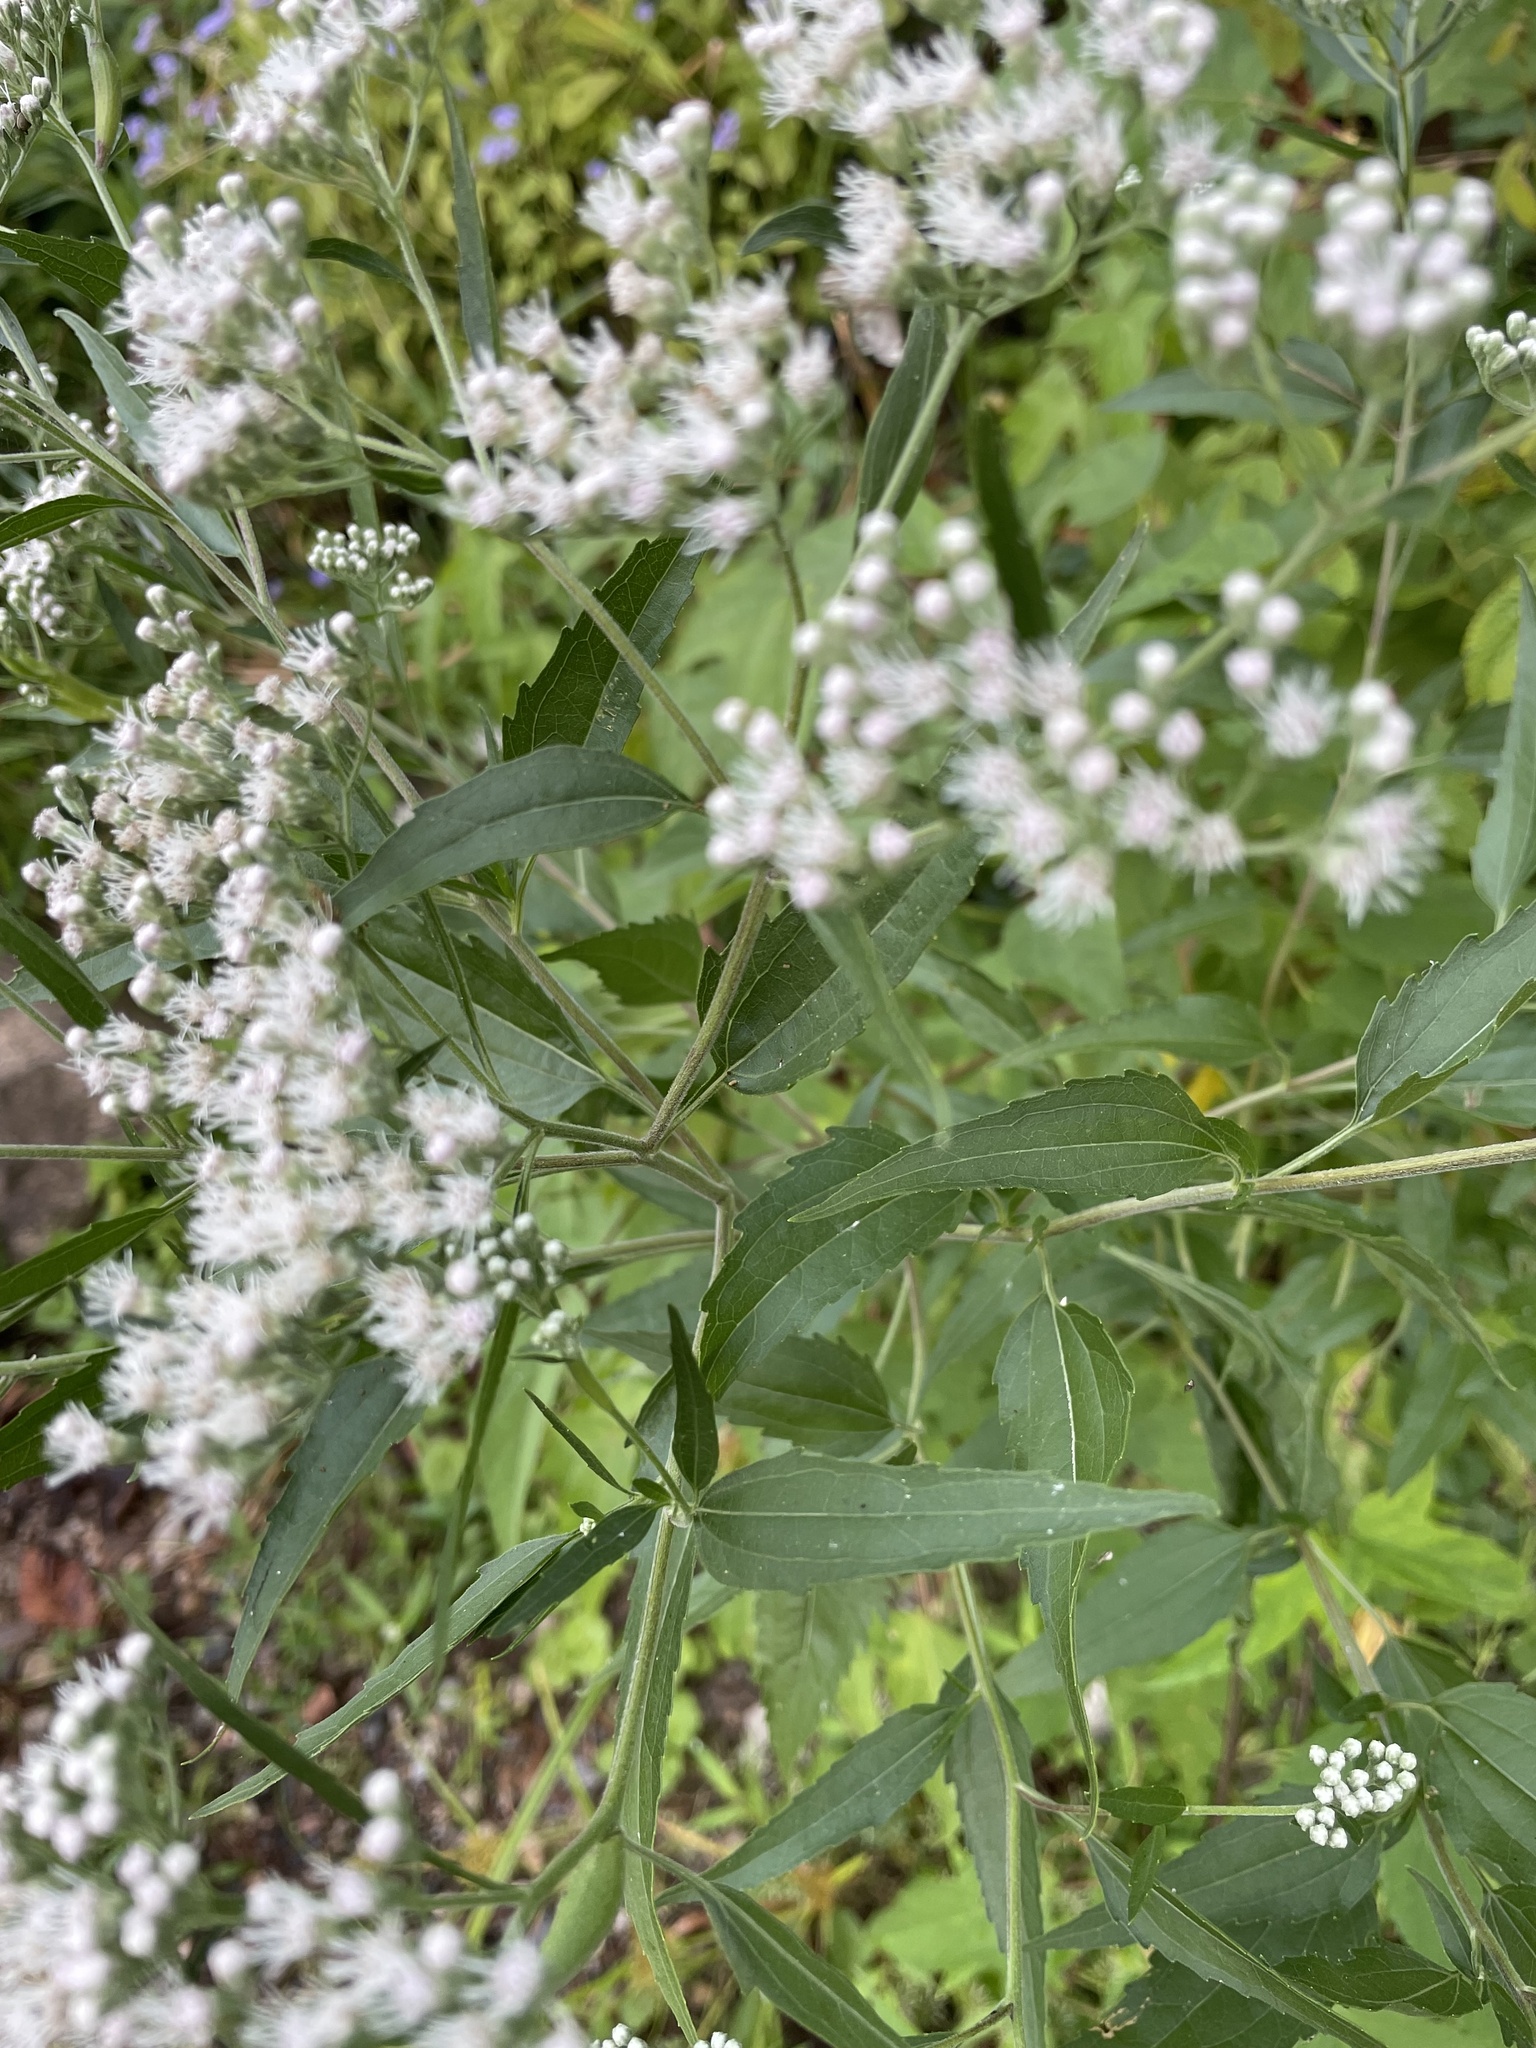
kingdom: Plantae
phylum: Tracheophyta
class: Magnoliopsida
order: Asterales
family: Asteraceae
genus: Eupatorium
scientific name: Eupatorium serotinum
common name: Late boneset
